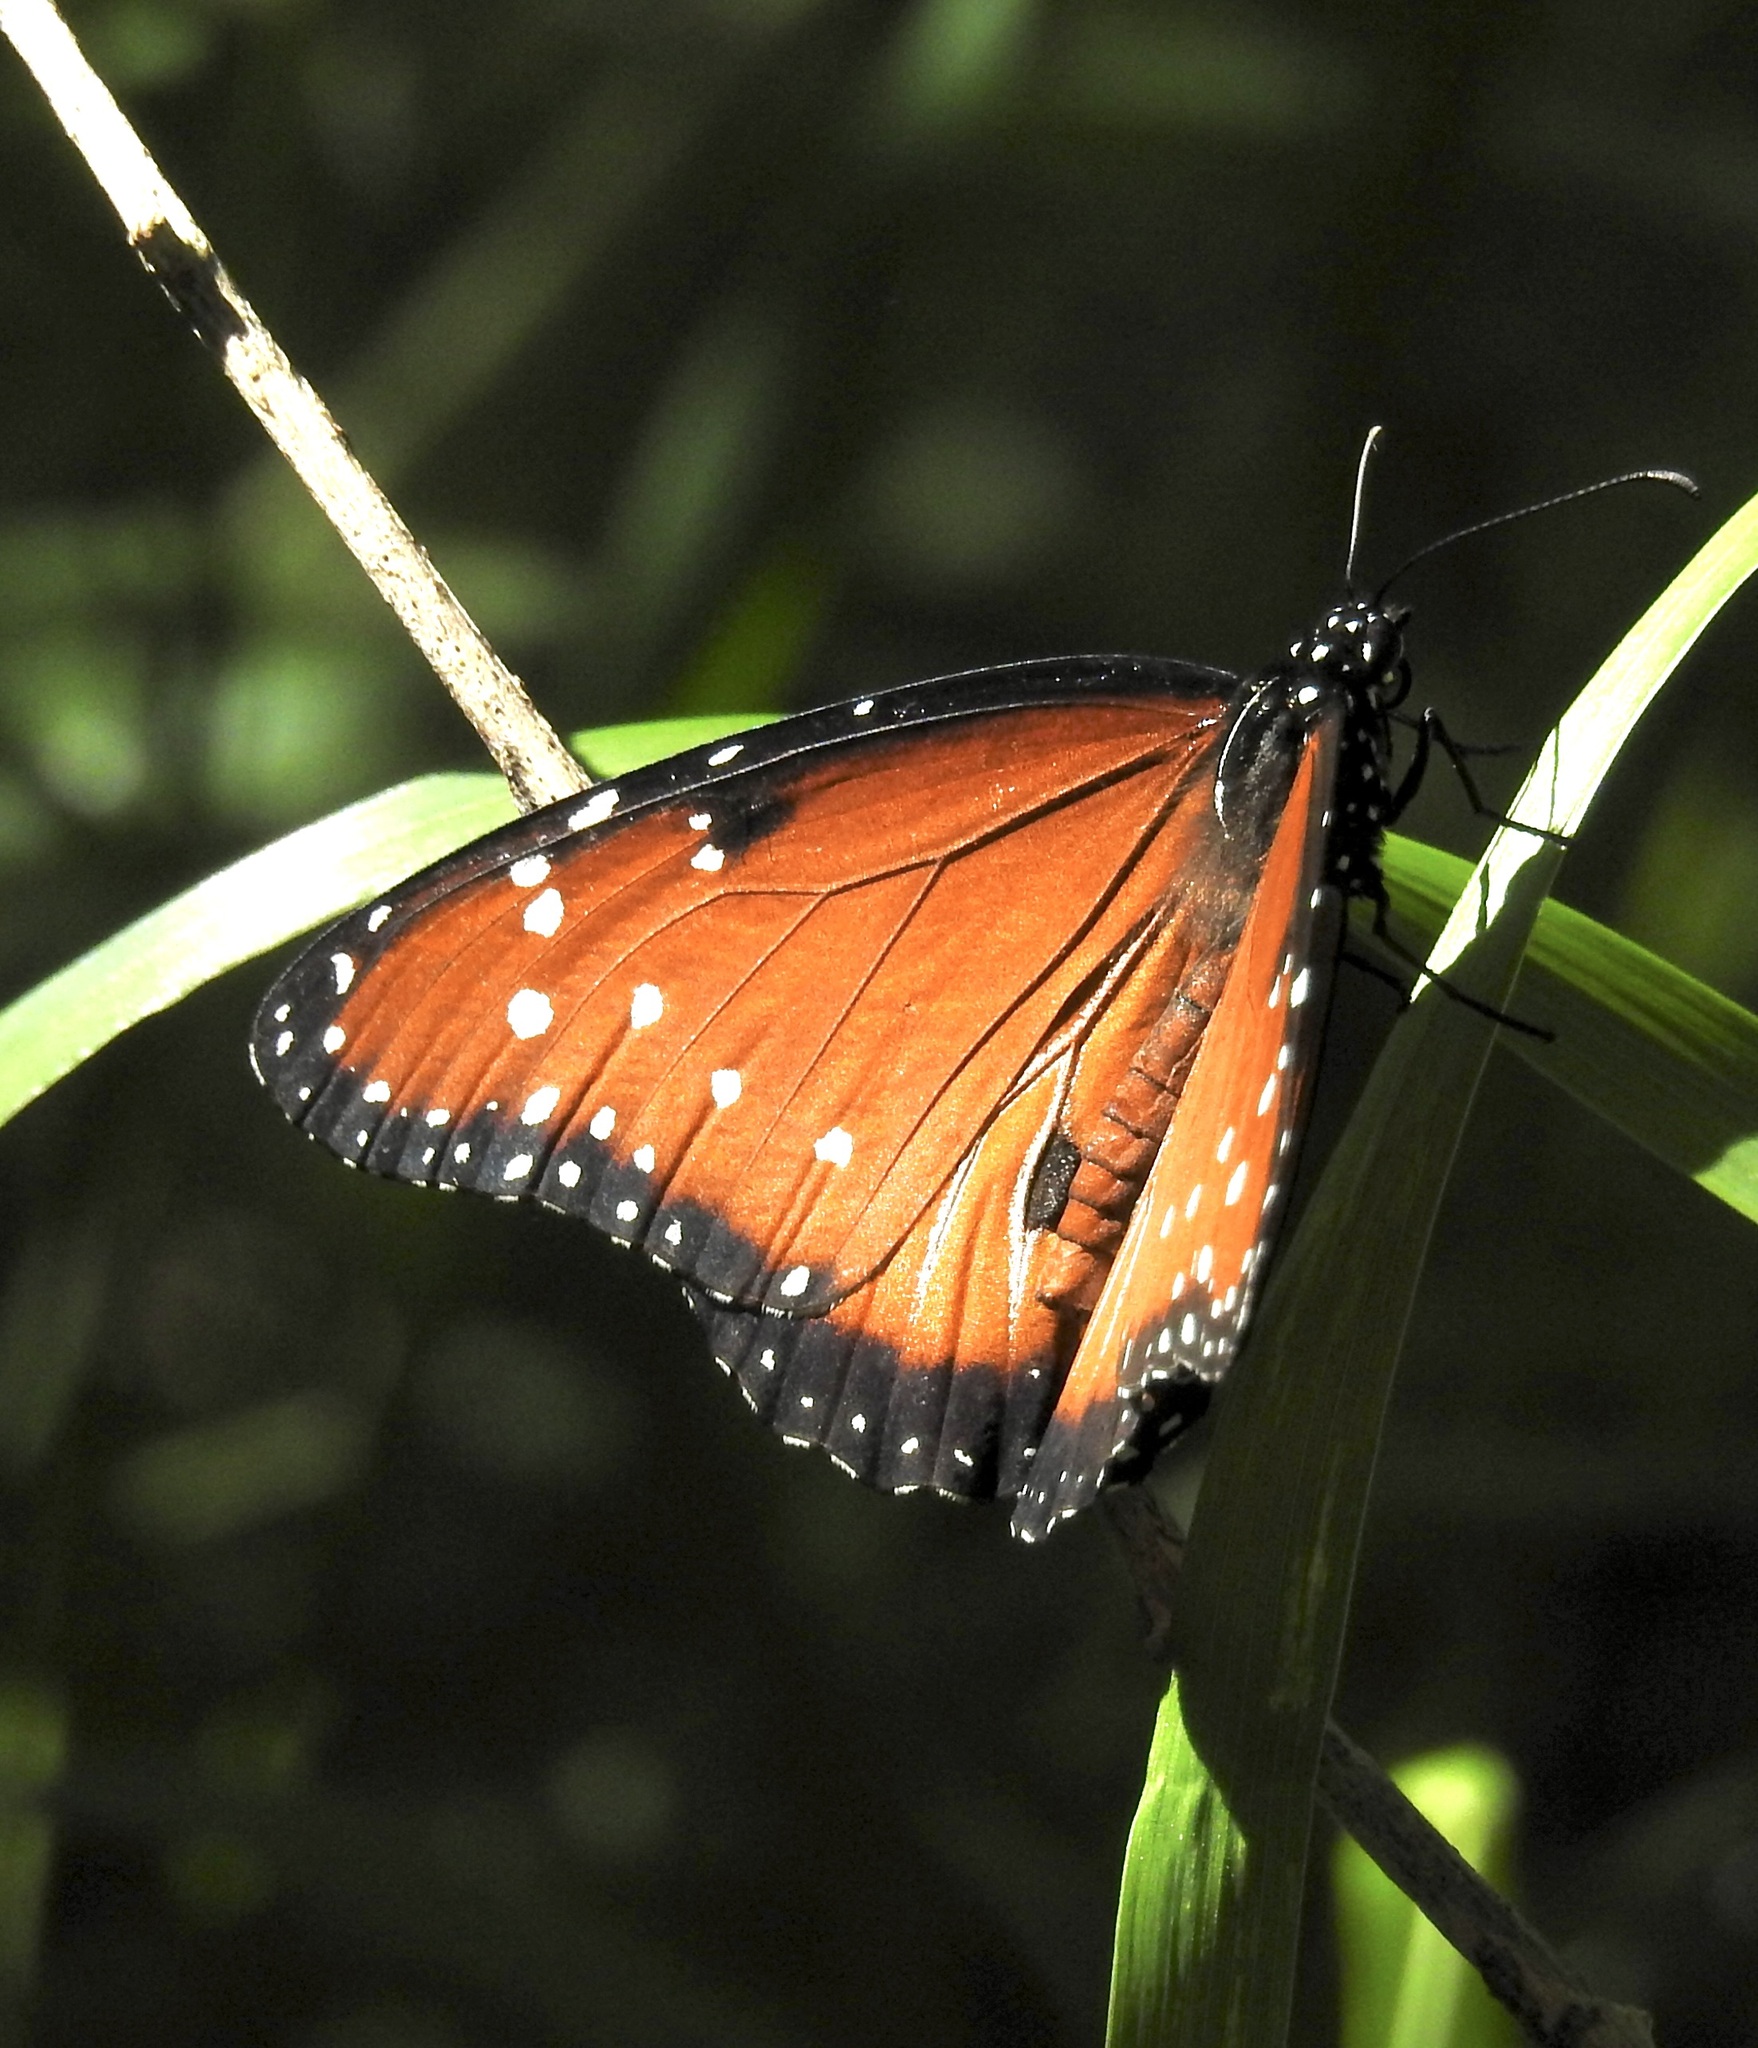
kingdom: Animalia
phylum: Arthropoda
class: Insecta
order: Lepidoptera
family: Nymphalidae
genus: Danaus
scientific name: Danaus gilippus
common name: Queen
